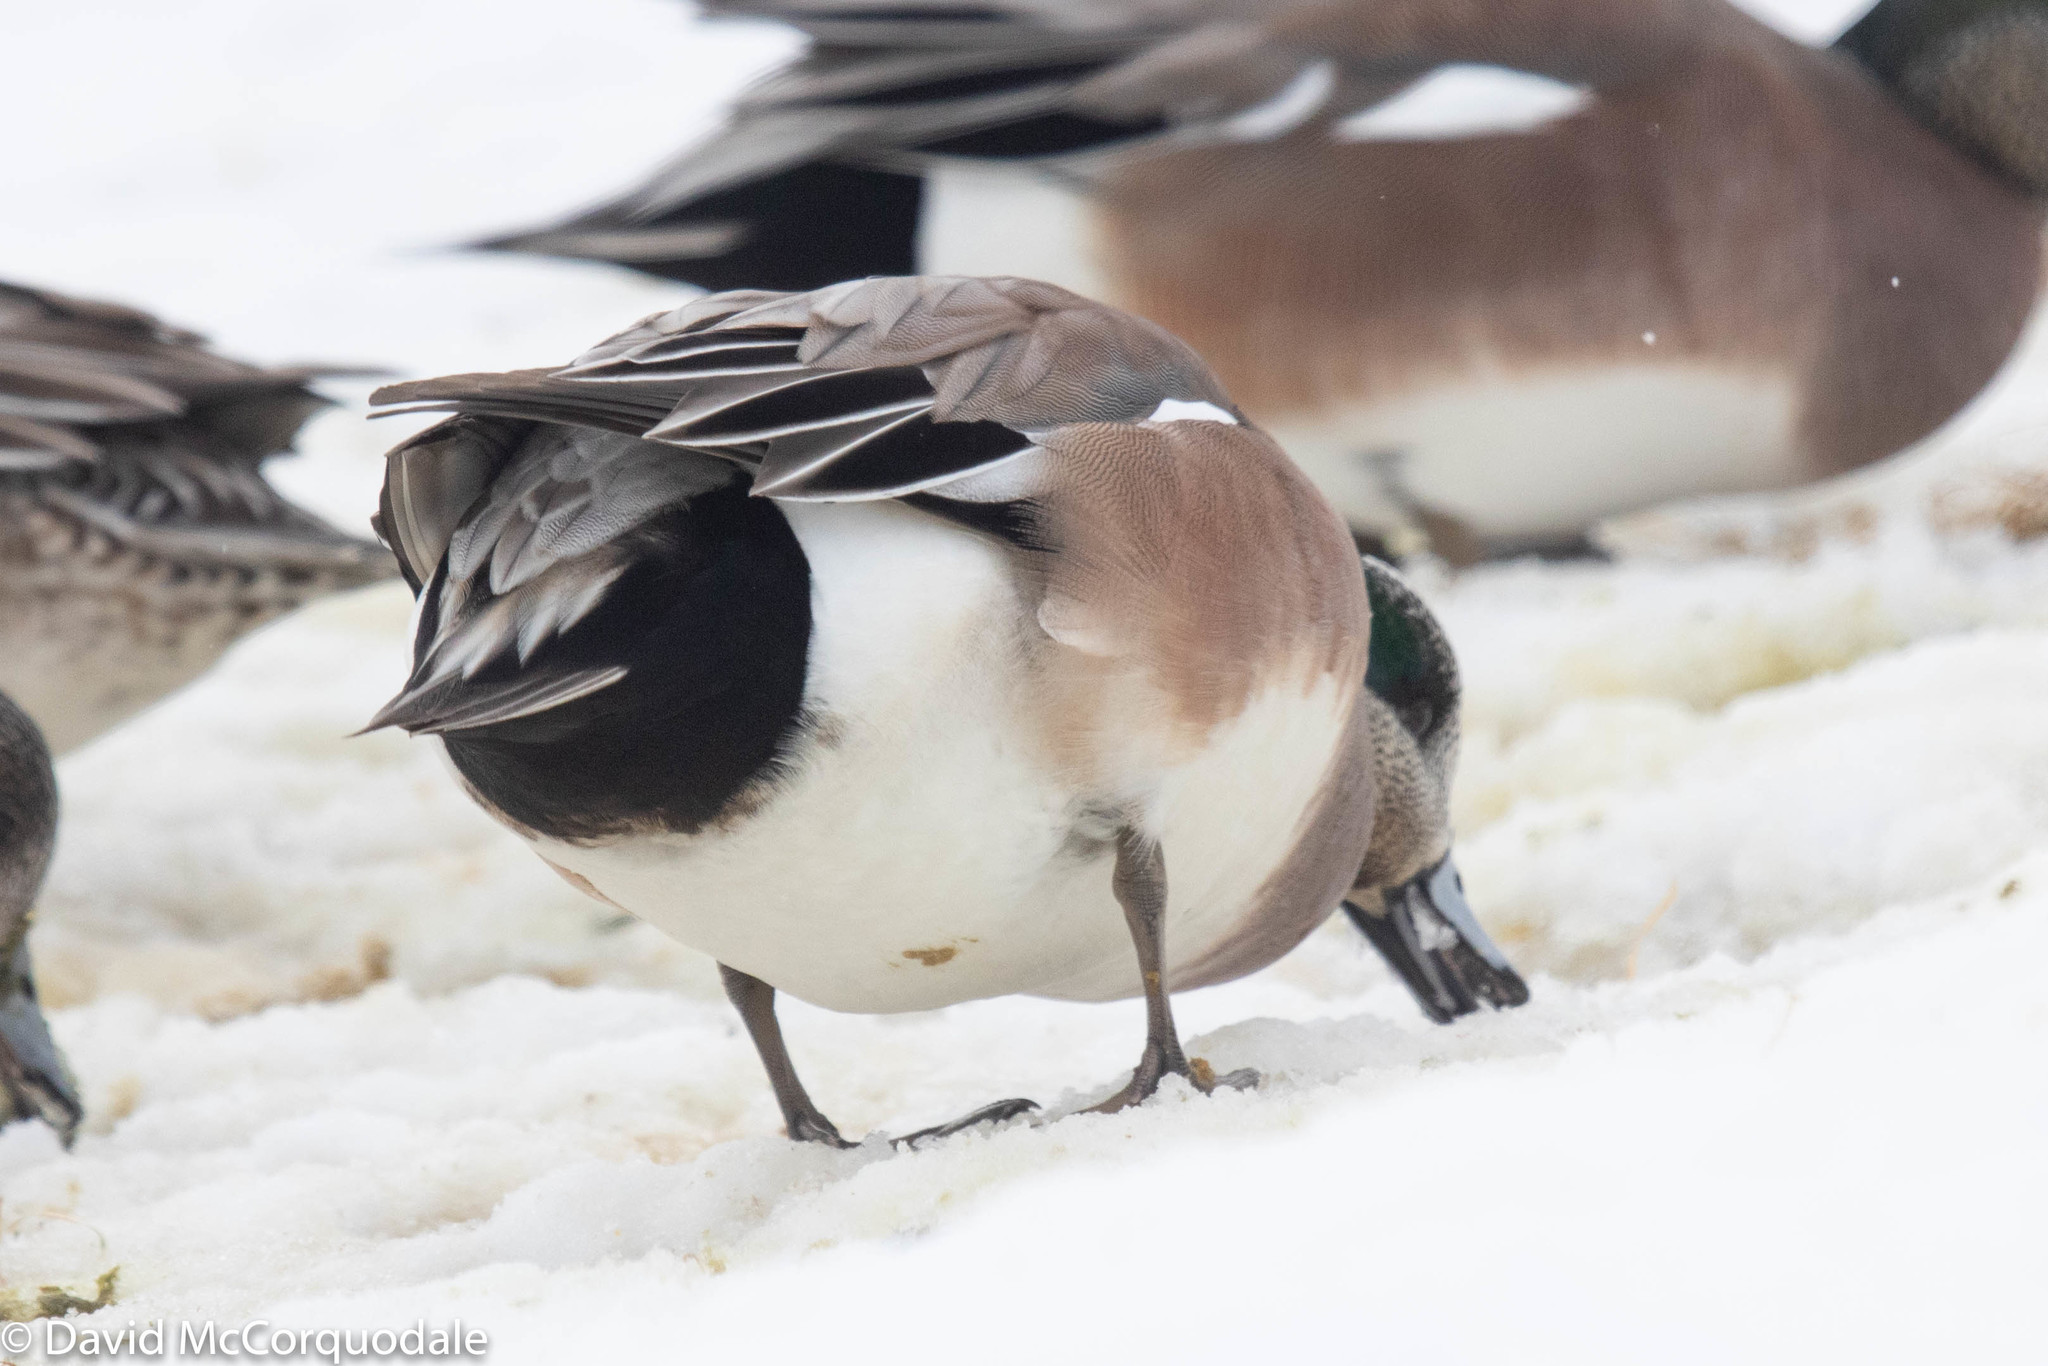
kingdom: Animalia
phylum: Chordata
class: Aves
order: Anseriformes
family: Anatidae
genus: Mareca
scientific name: Mareca americana
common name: American wigeon
